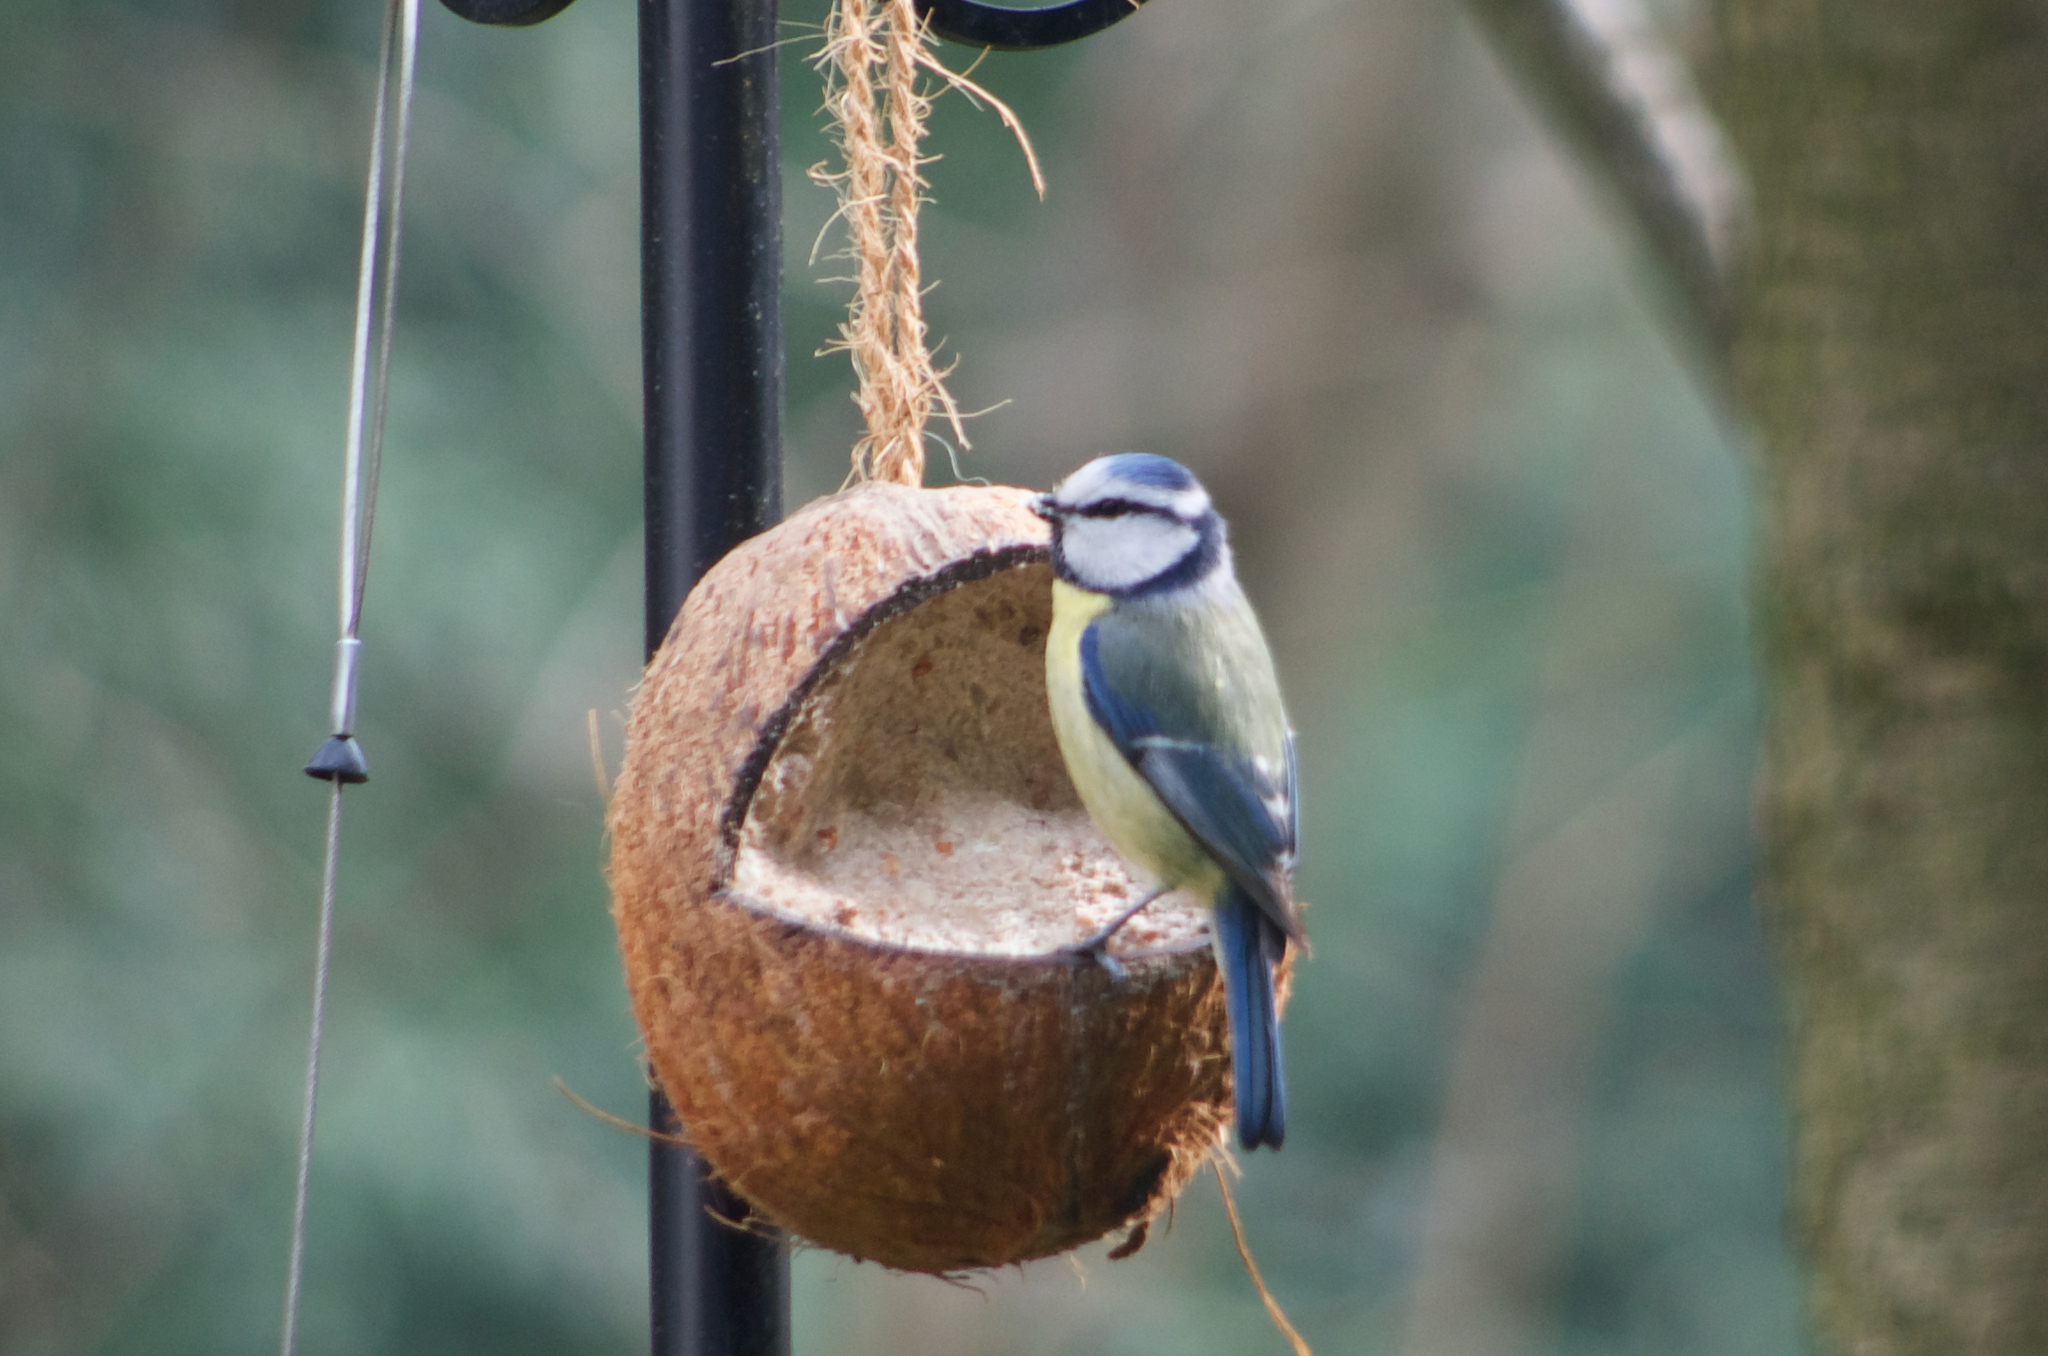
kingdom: Animalia
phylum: Chordata
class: Aves
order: Passeriformes
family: Paridae
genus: Cyanistes
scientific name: Cyanistes caeruleus
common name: Eurasian blue tit
